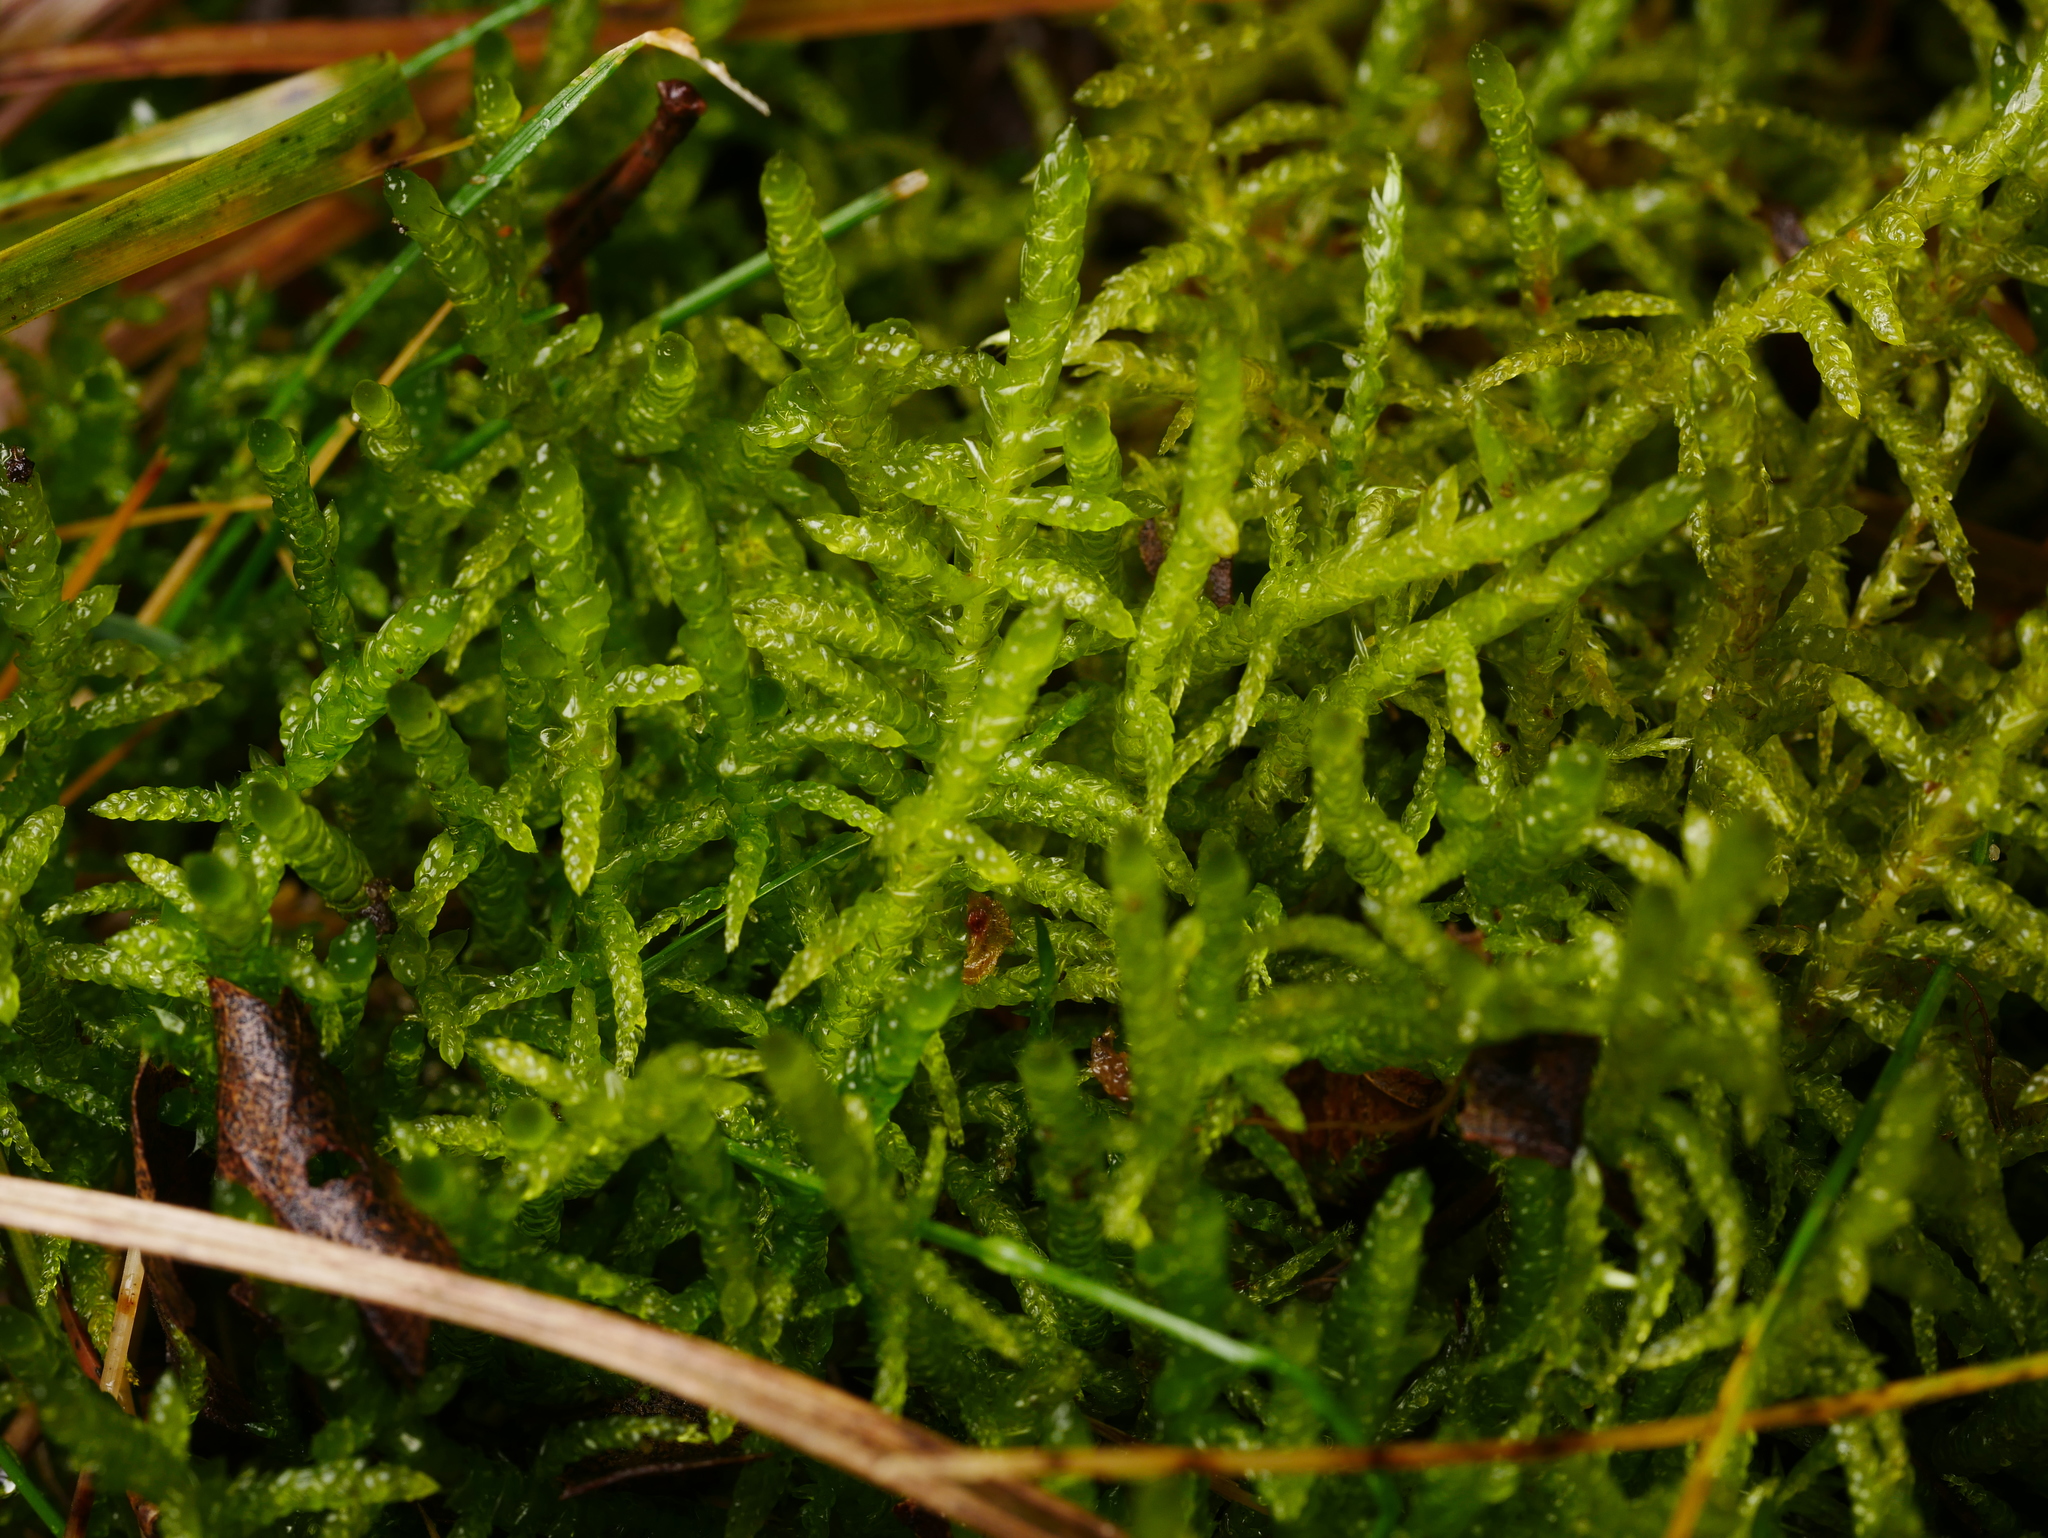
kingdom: Plantae
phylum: Bryophyta
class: Bryopsida
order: Hypnales
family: Brachytheciaceae
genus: Pseudoscleropodium
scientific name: Pseudoscleropodium purum
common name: Neat feather-moss
